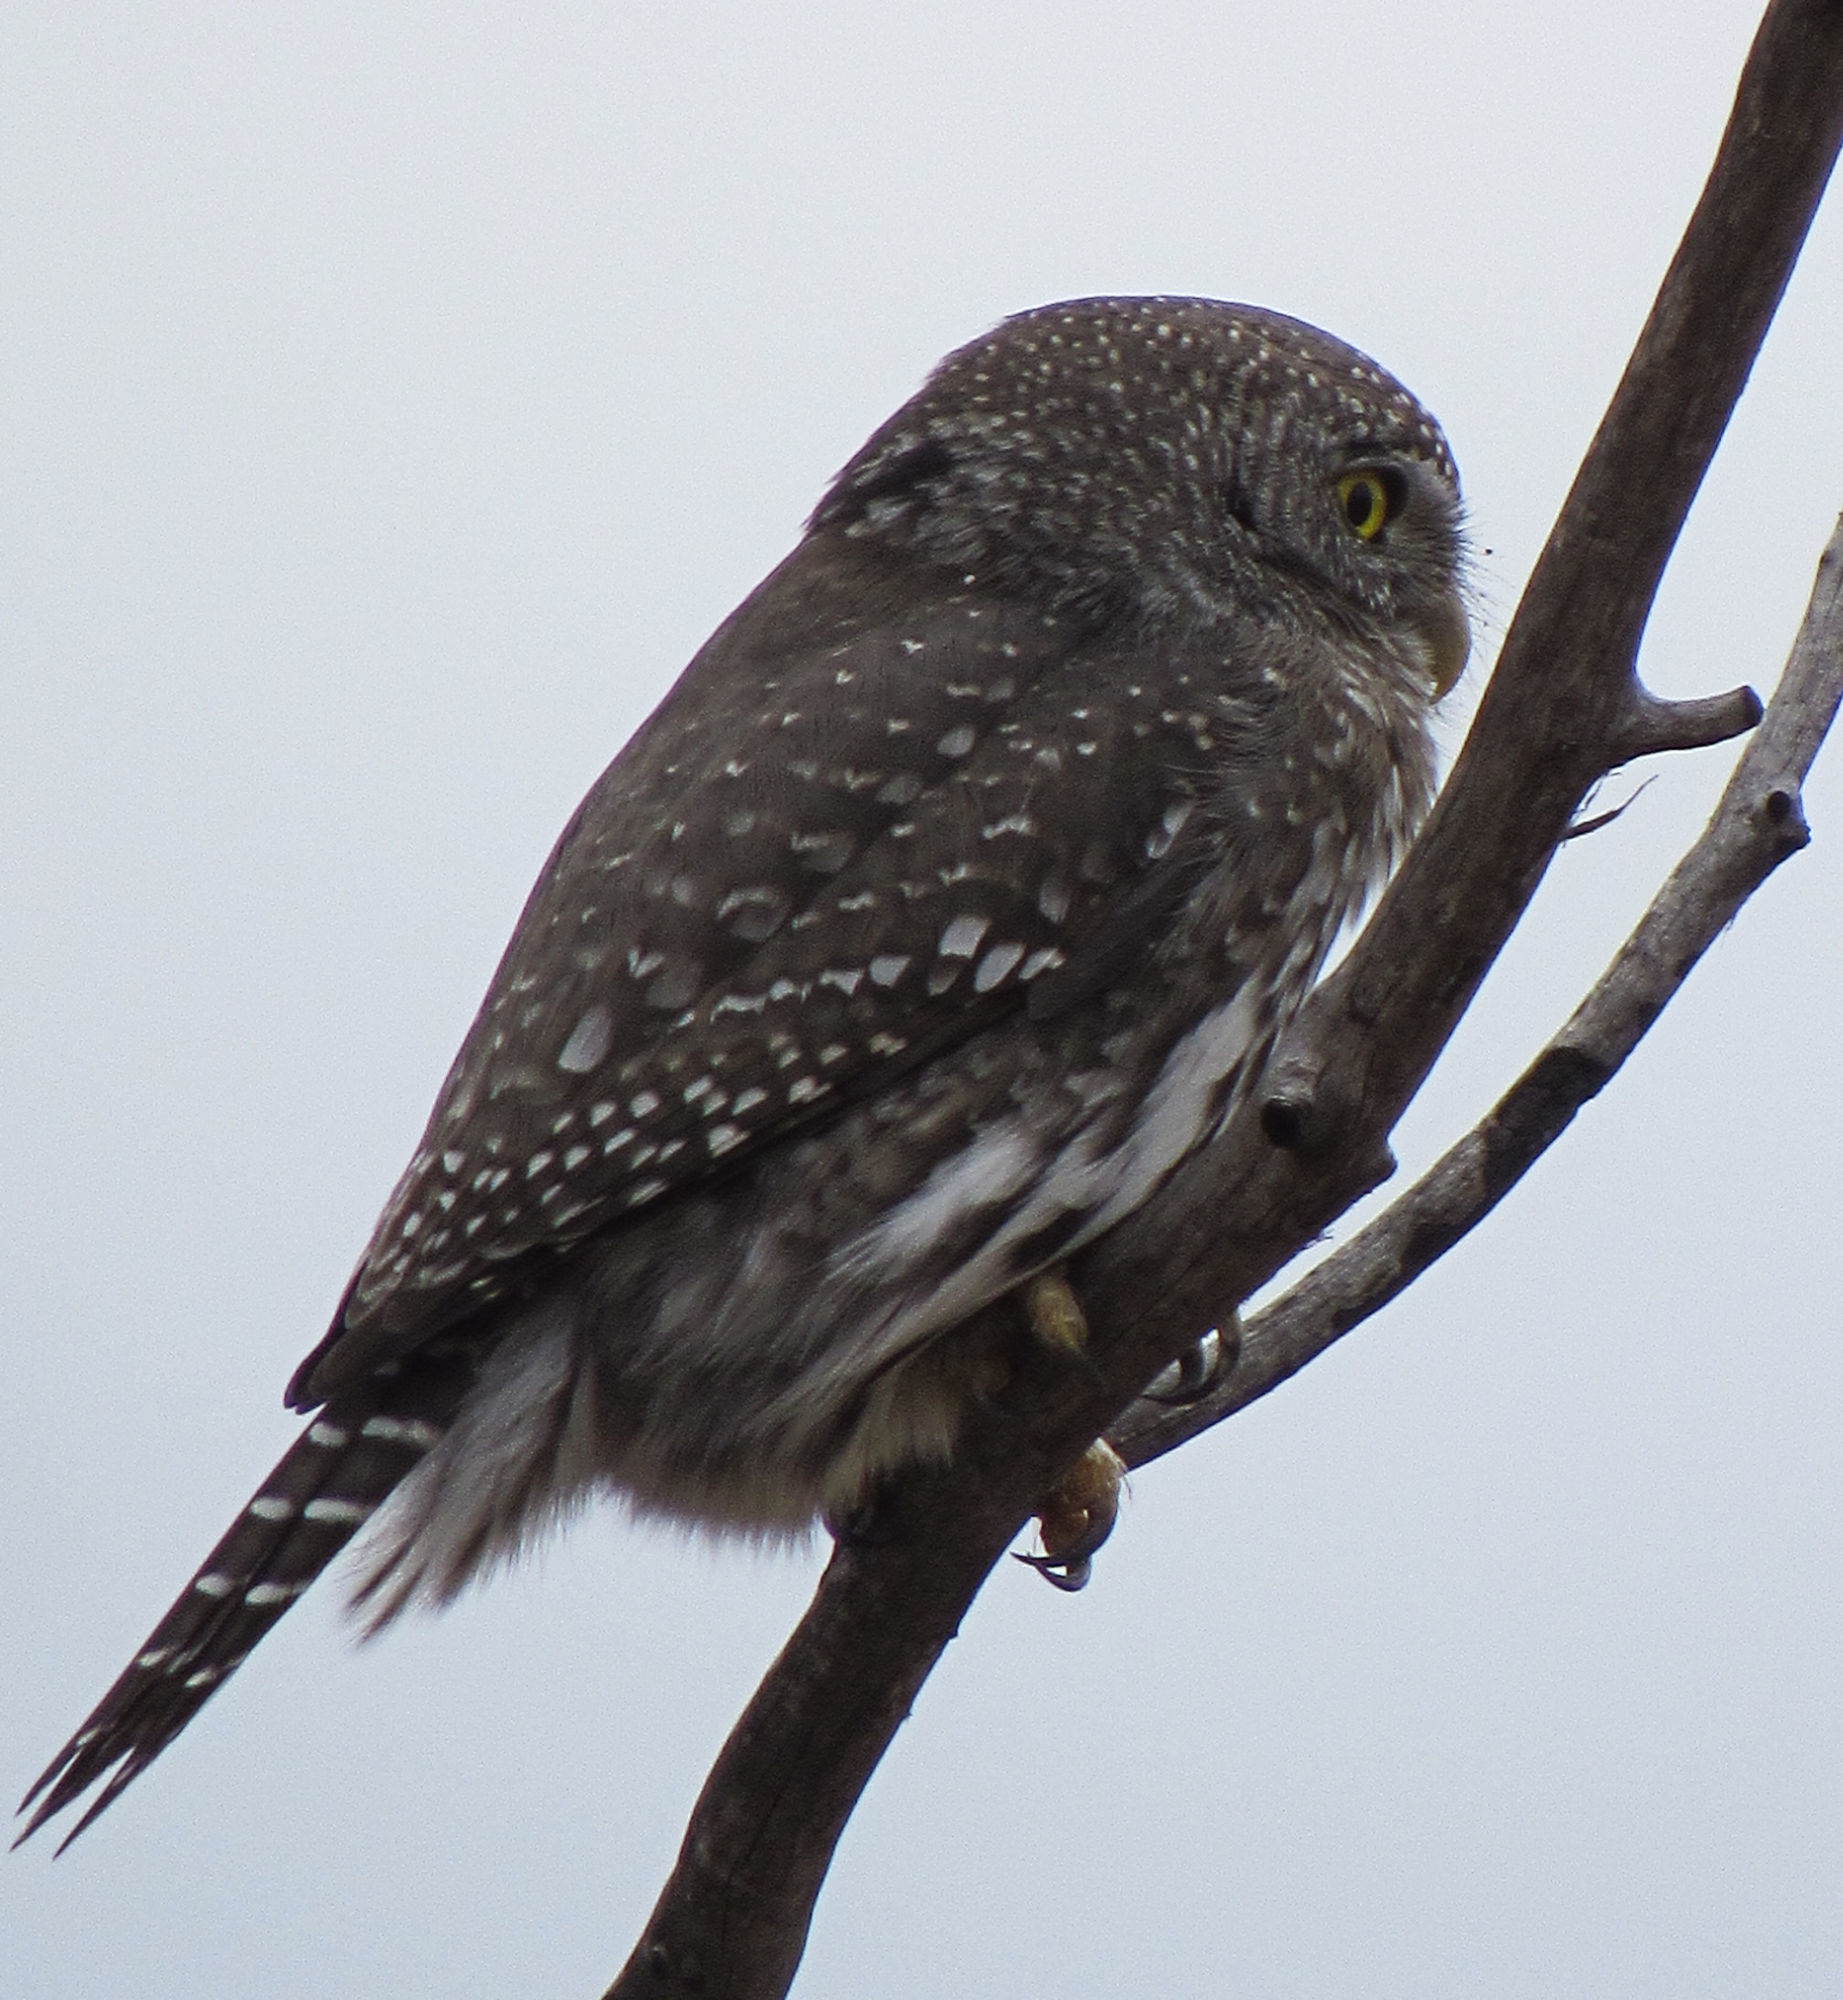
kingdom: Animalia
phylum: Chordata
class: Aves
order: Strigiformes
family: Strigidae
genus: Glaucidium
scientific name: Glaucidium gnoma
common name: Northern pygmy-owl
